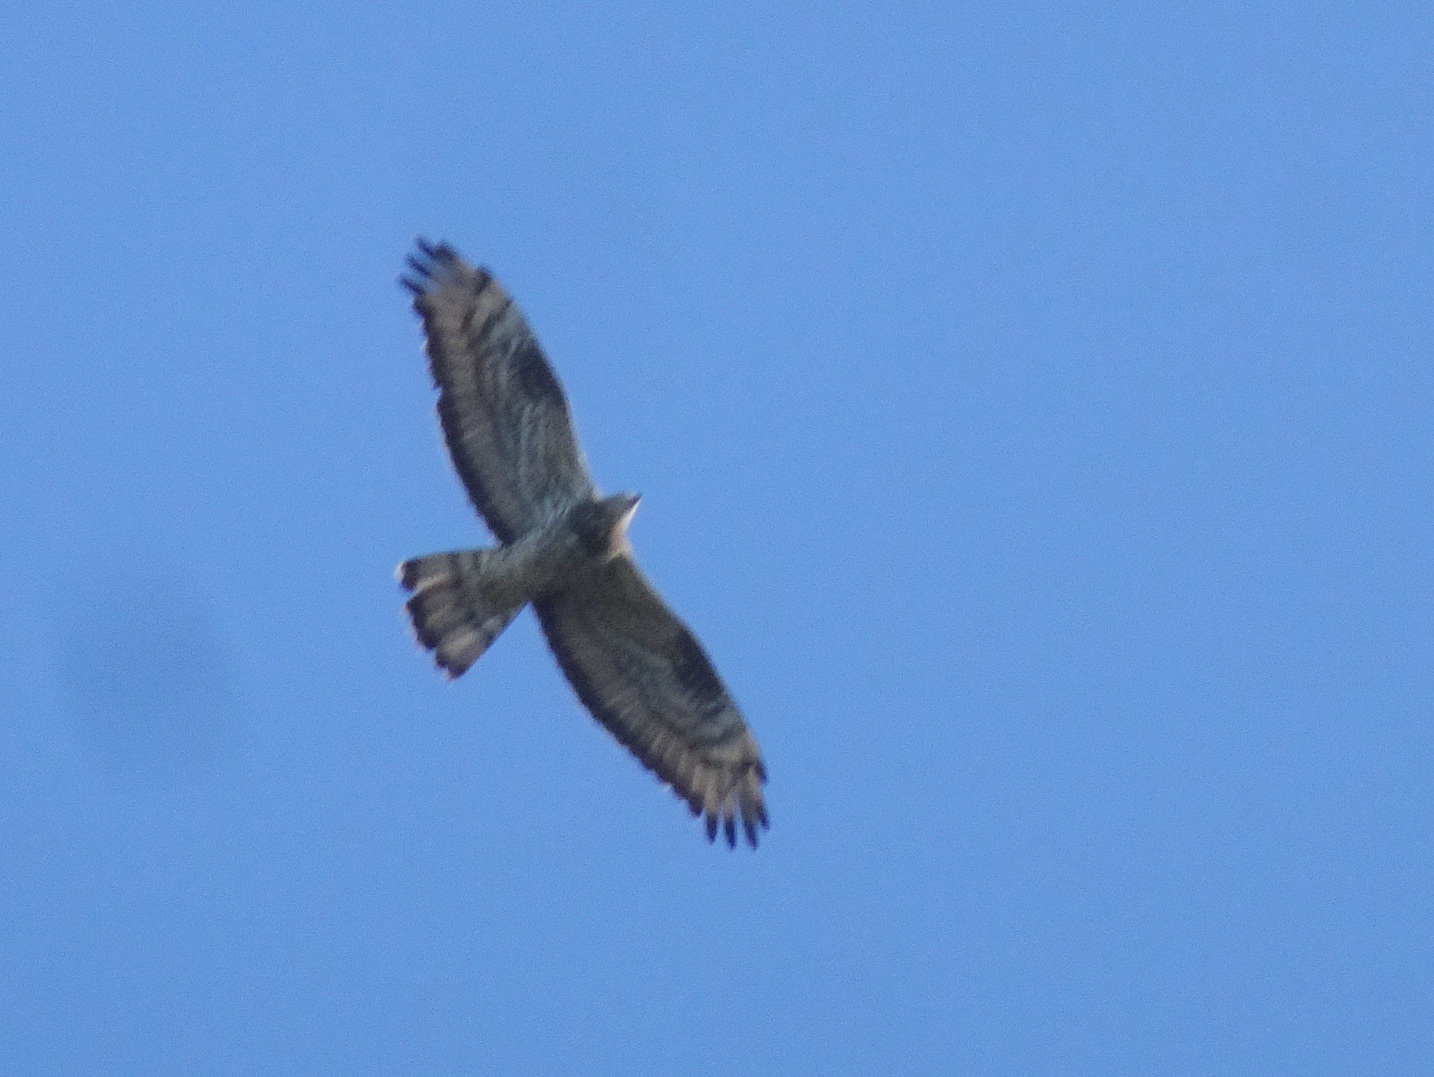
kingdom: Animalia
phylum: Chordata
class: Aves
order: Accipitriformes
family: Accipitridae
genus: Pernis
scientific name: Pernis apivorus
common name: European honey buzzard
